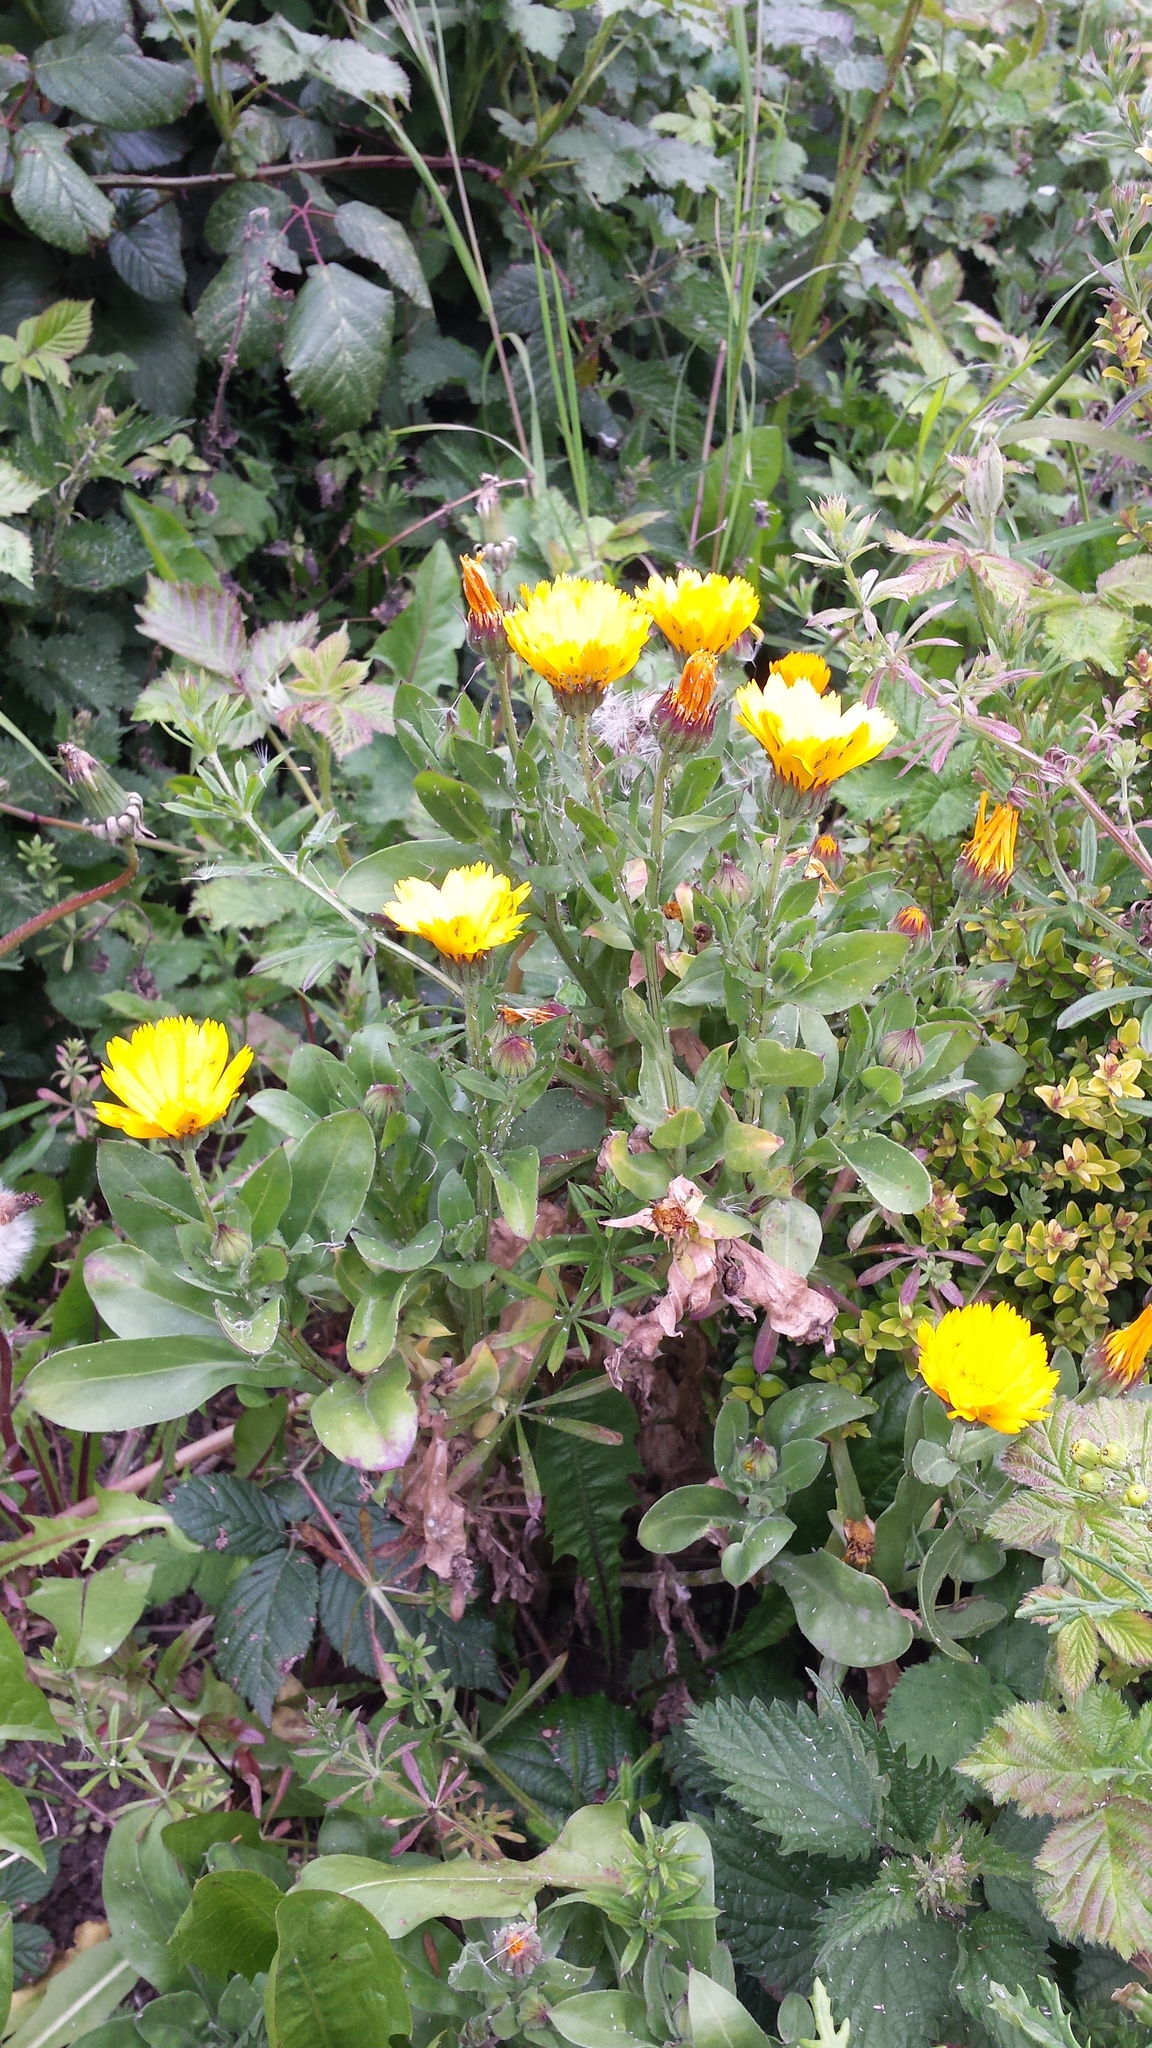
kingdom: Plantae
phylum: Tracheophyta
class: Magnoliopsida
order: Asterales
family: Asteraceae
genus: Calendula
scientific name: Calendula officinalis
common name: Pot marigold
